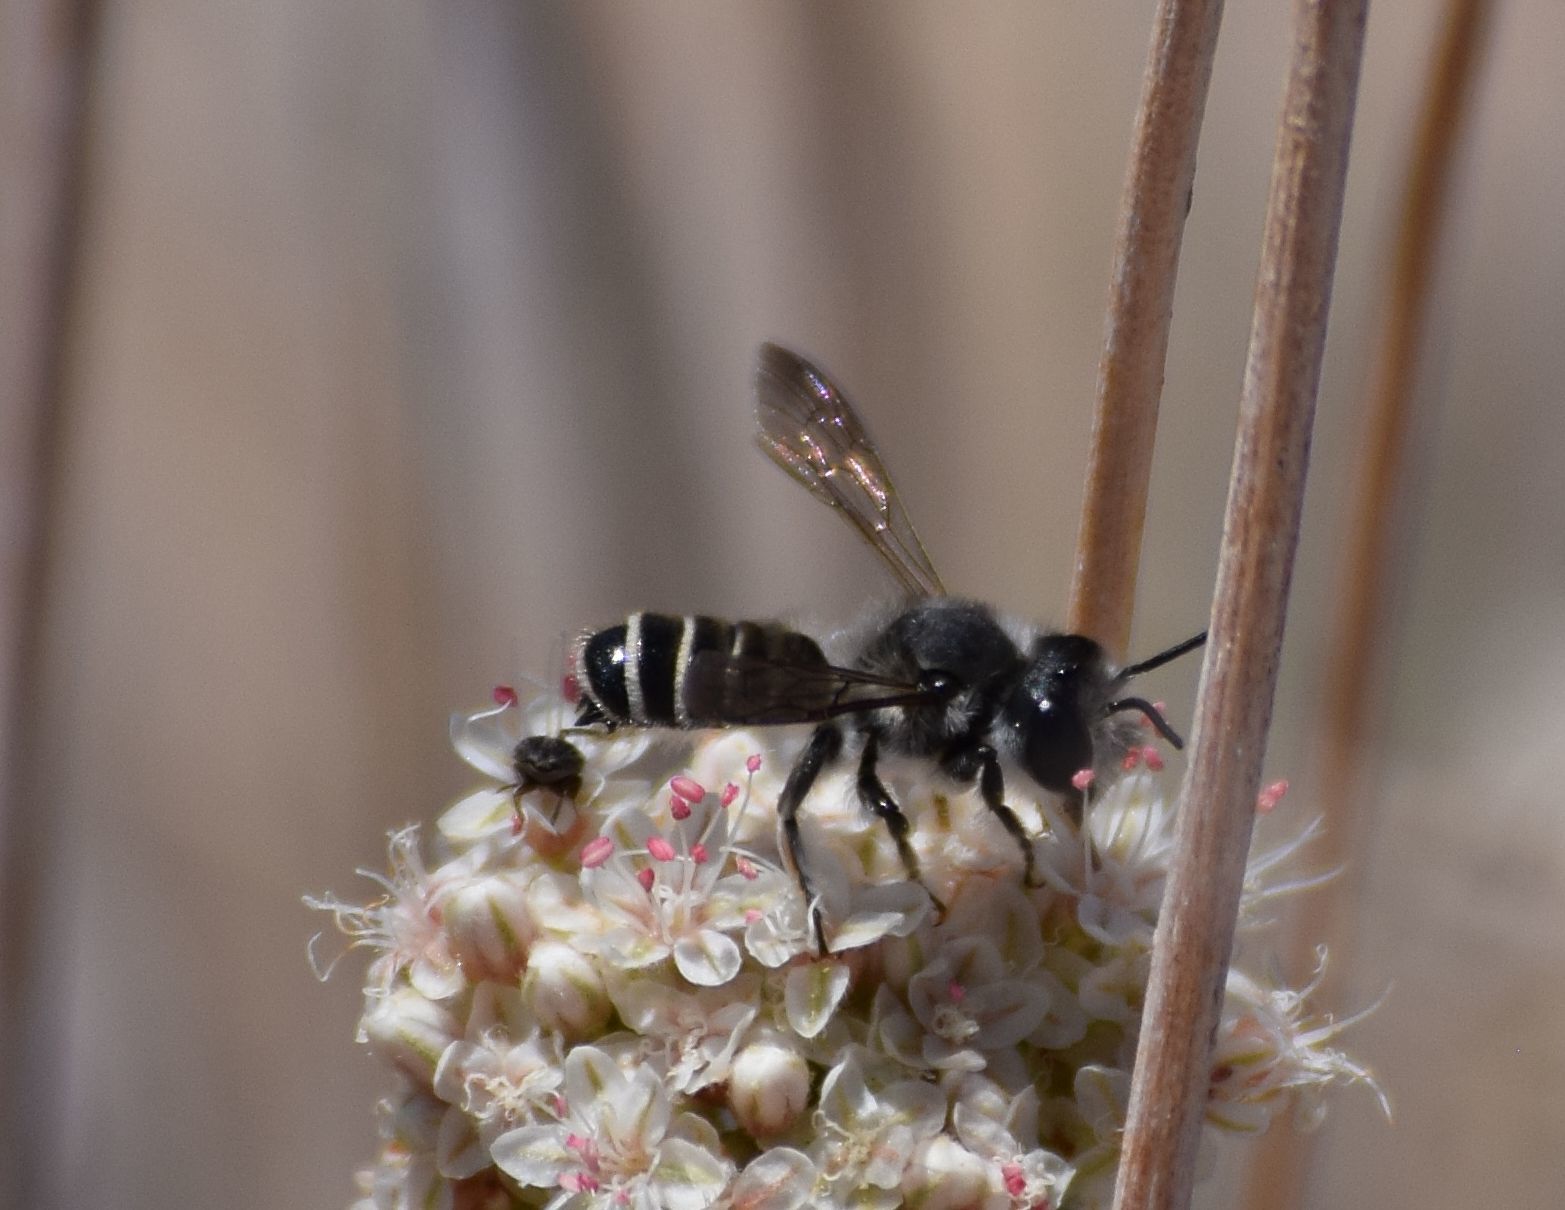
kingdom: Animalia
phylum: Arthropoda
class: Insecta
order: Hymenoptera
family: Megachilidae
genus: Megachile
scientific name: Megachile frugalis
